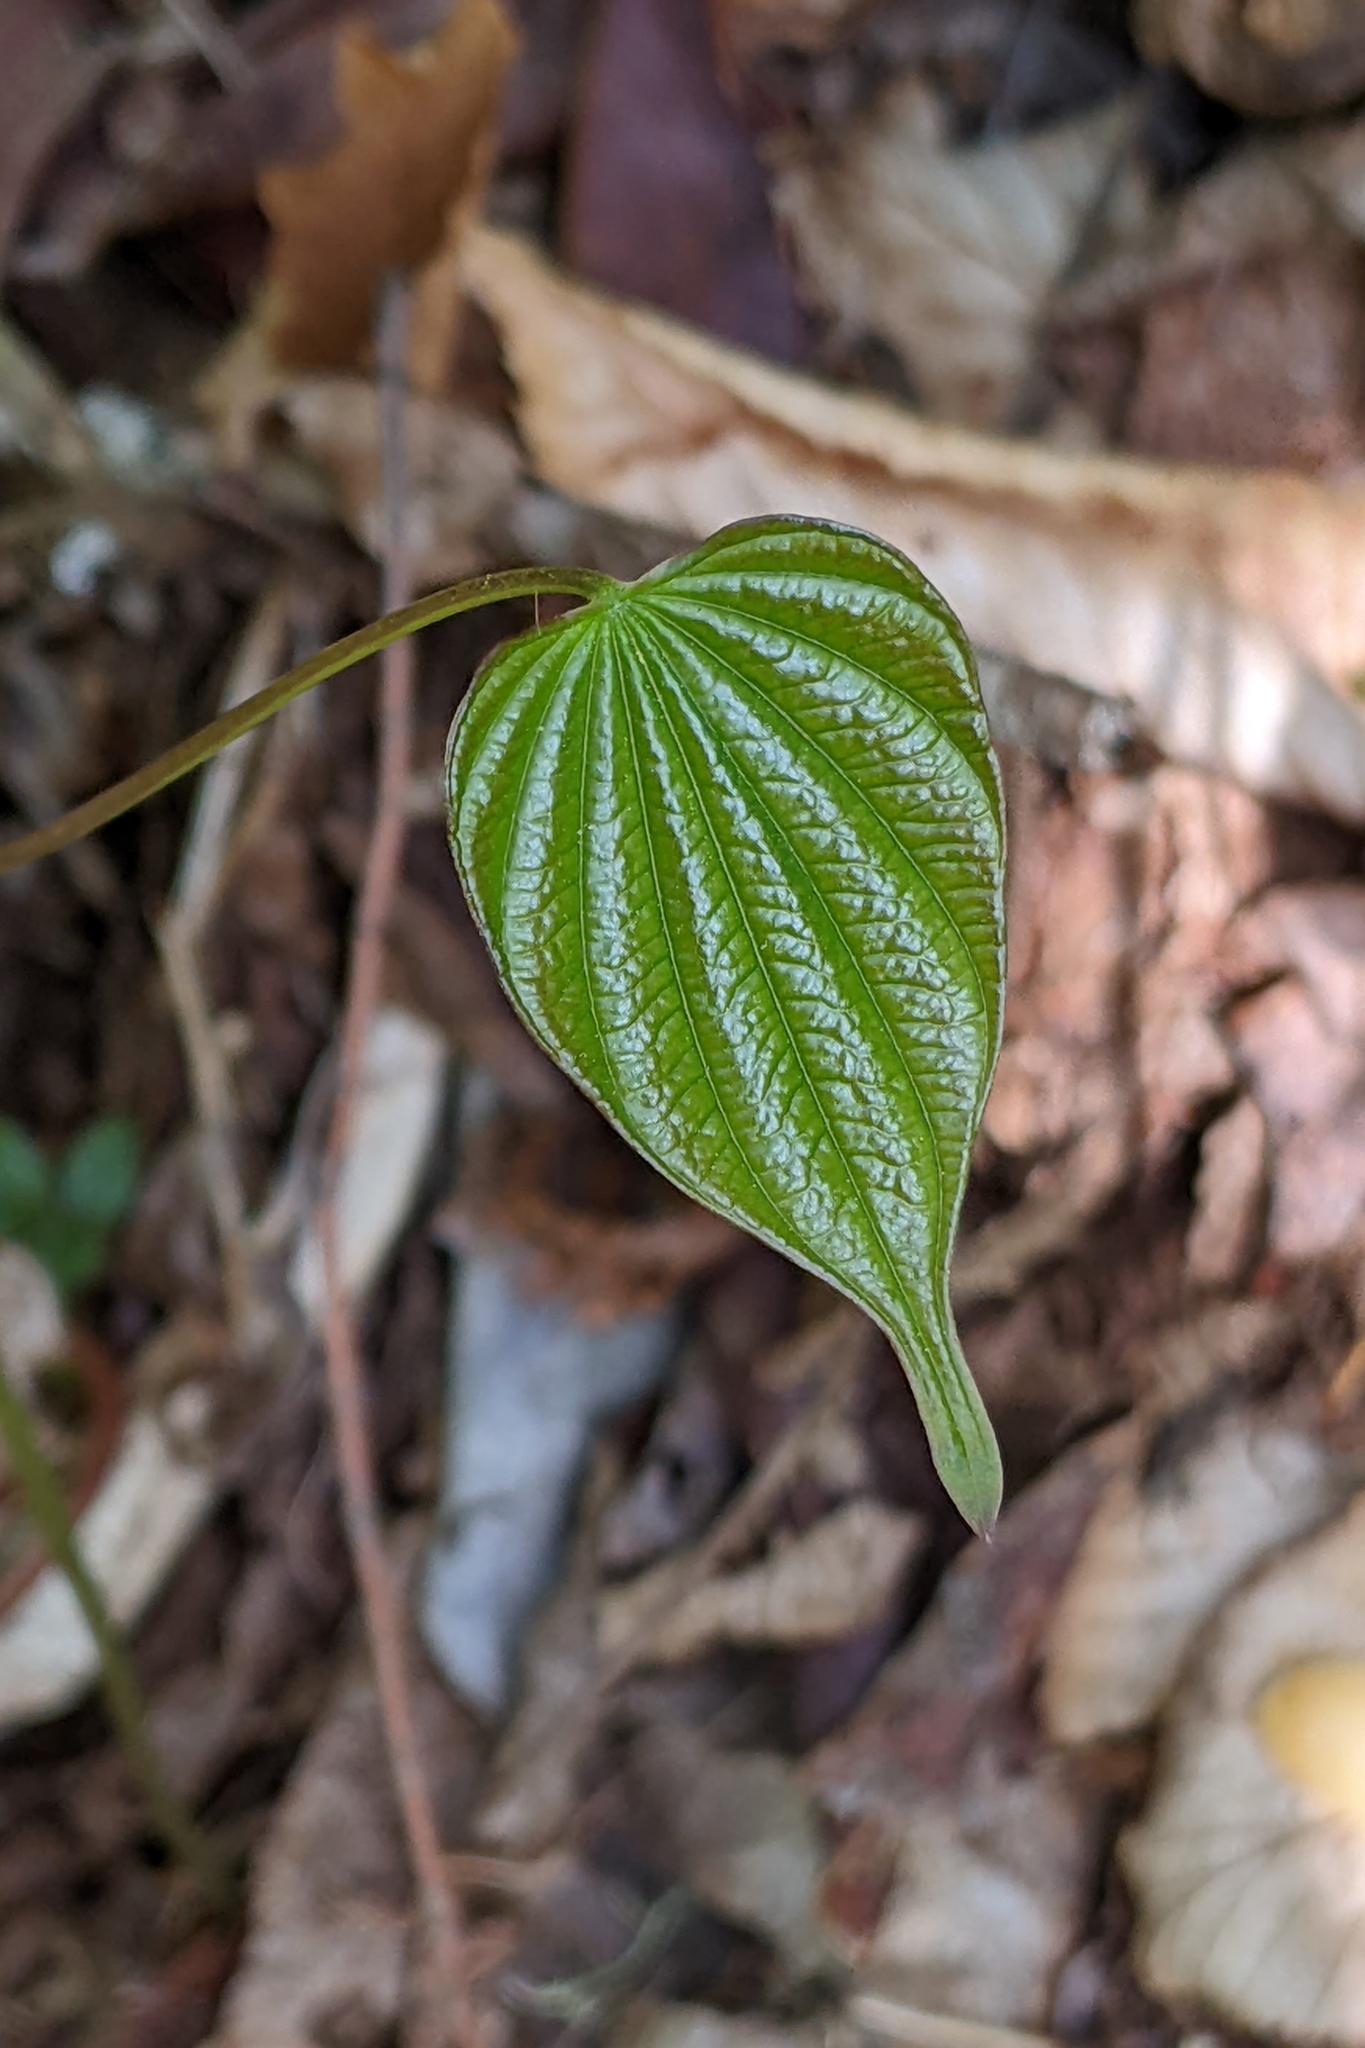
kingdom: Plantae
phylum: Tracheophyta
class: Liliopsida
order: Dioscoreales
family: Dioscoreaceae
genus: Dioscorea
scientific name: Dioscorea villosa
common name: Wild yam
